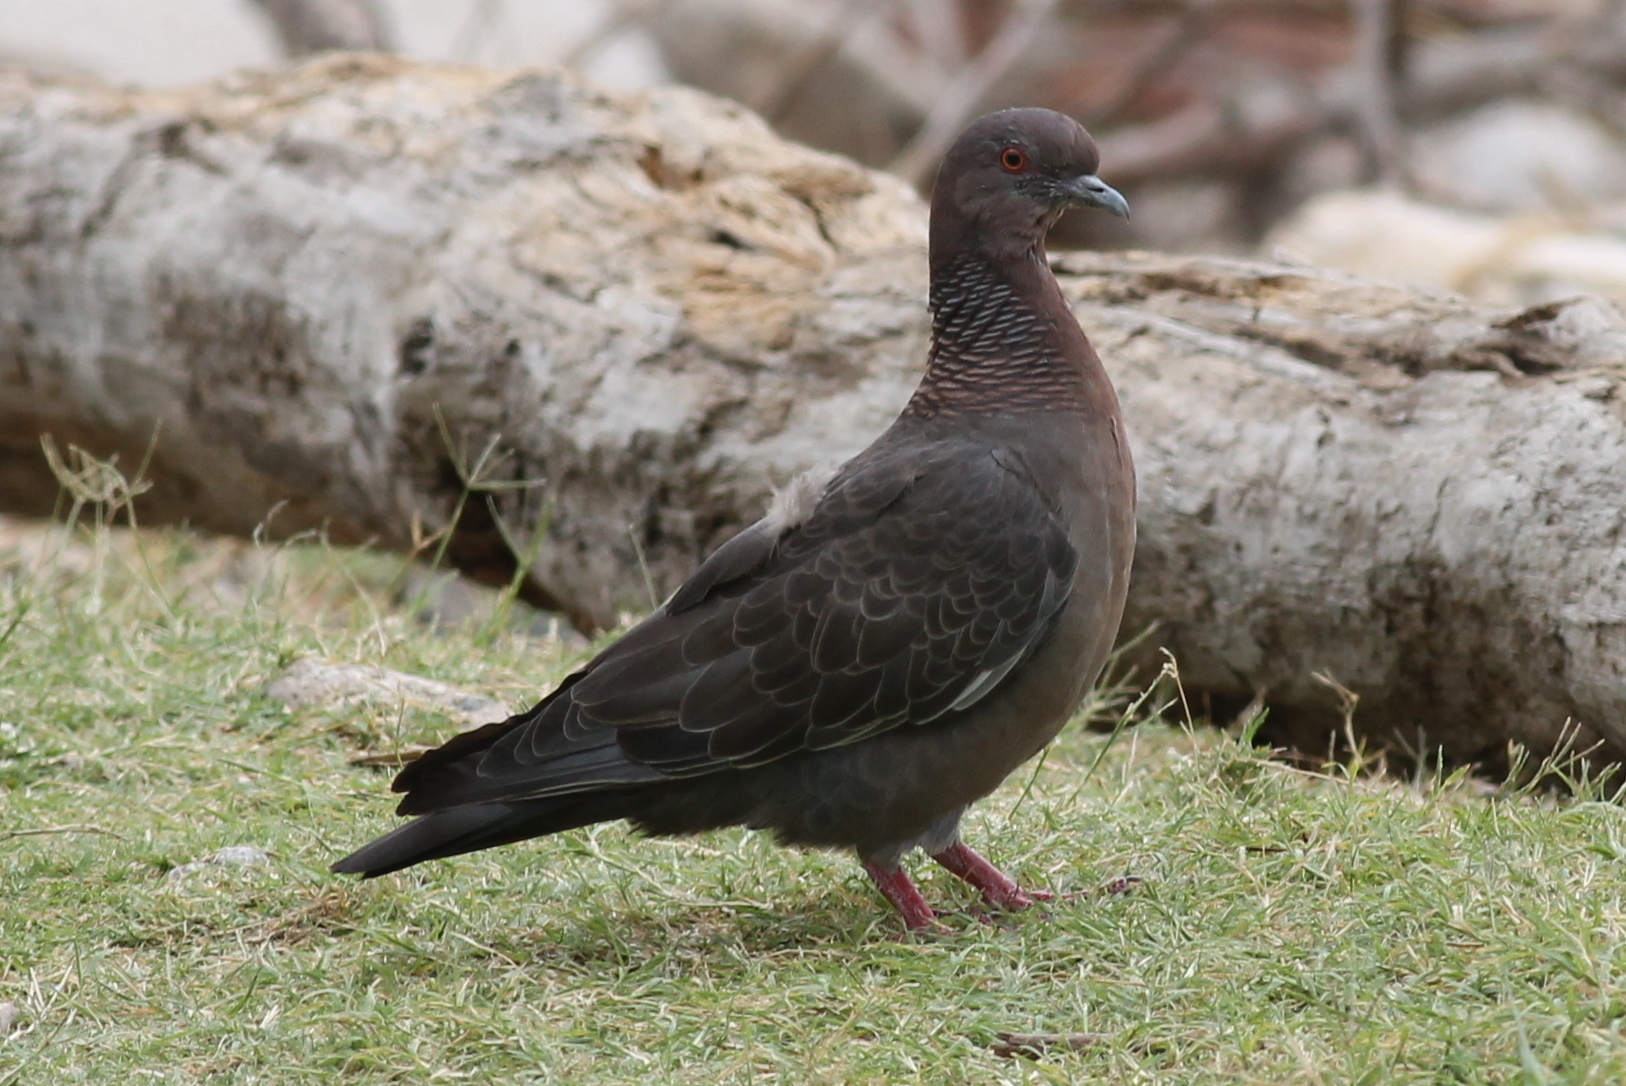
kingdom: Animalia
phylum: Chordata
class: Aves
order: Columbiformes
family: Columbidae
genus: Patagioenas
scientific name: Patagioenas picazuro
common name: Picazuro pigeon
